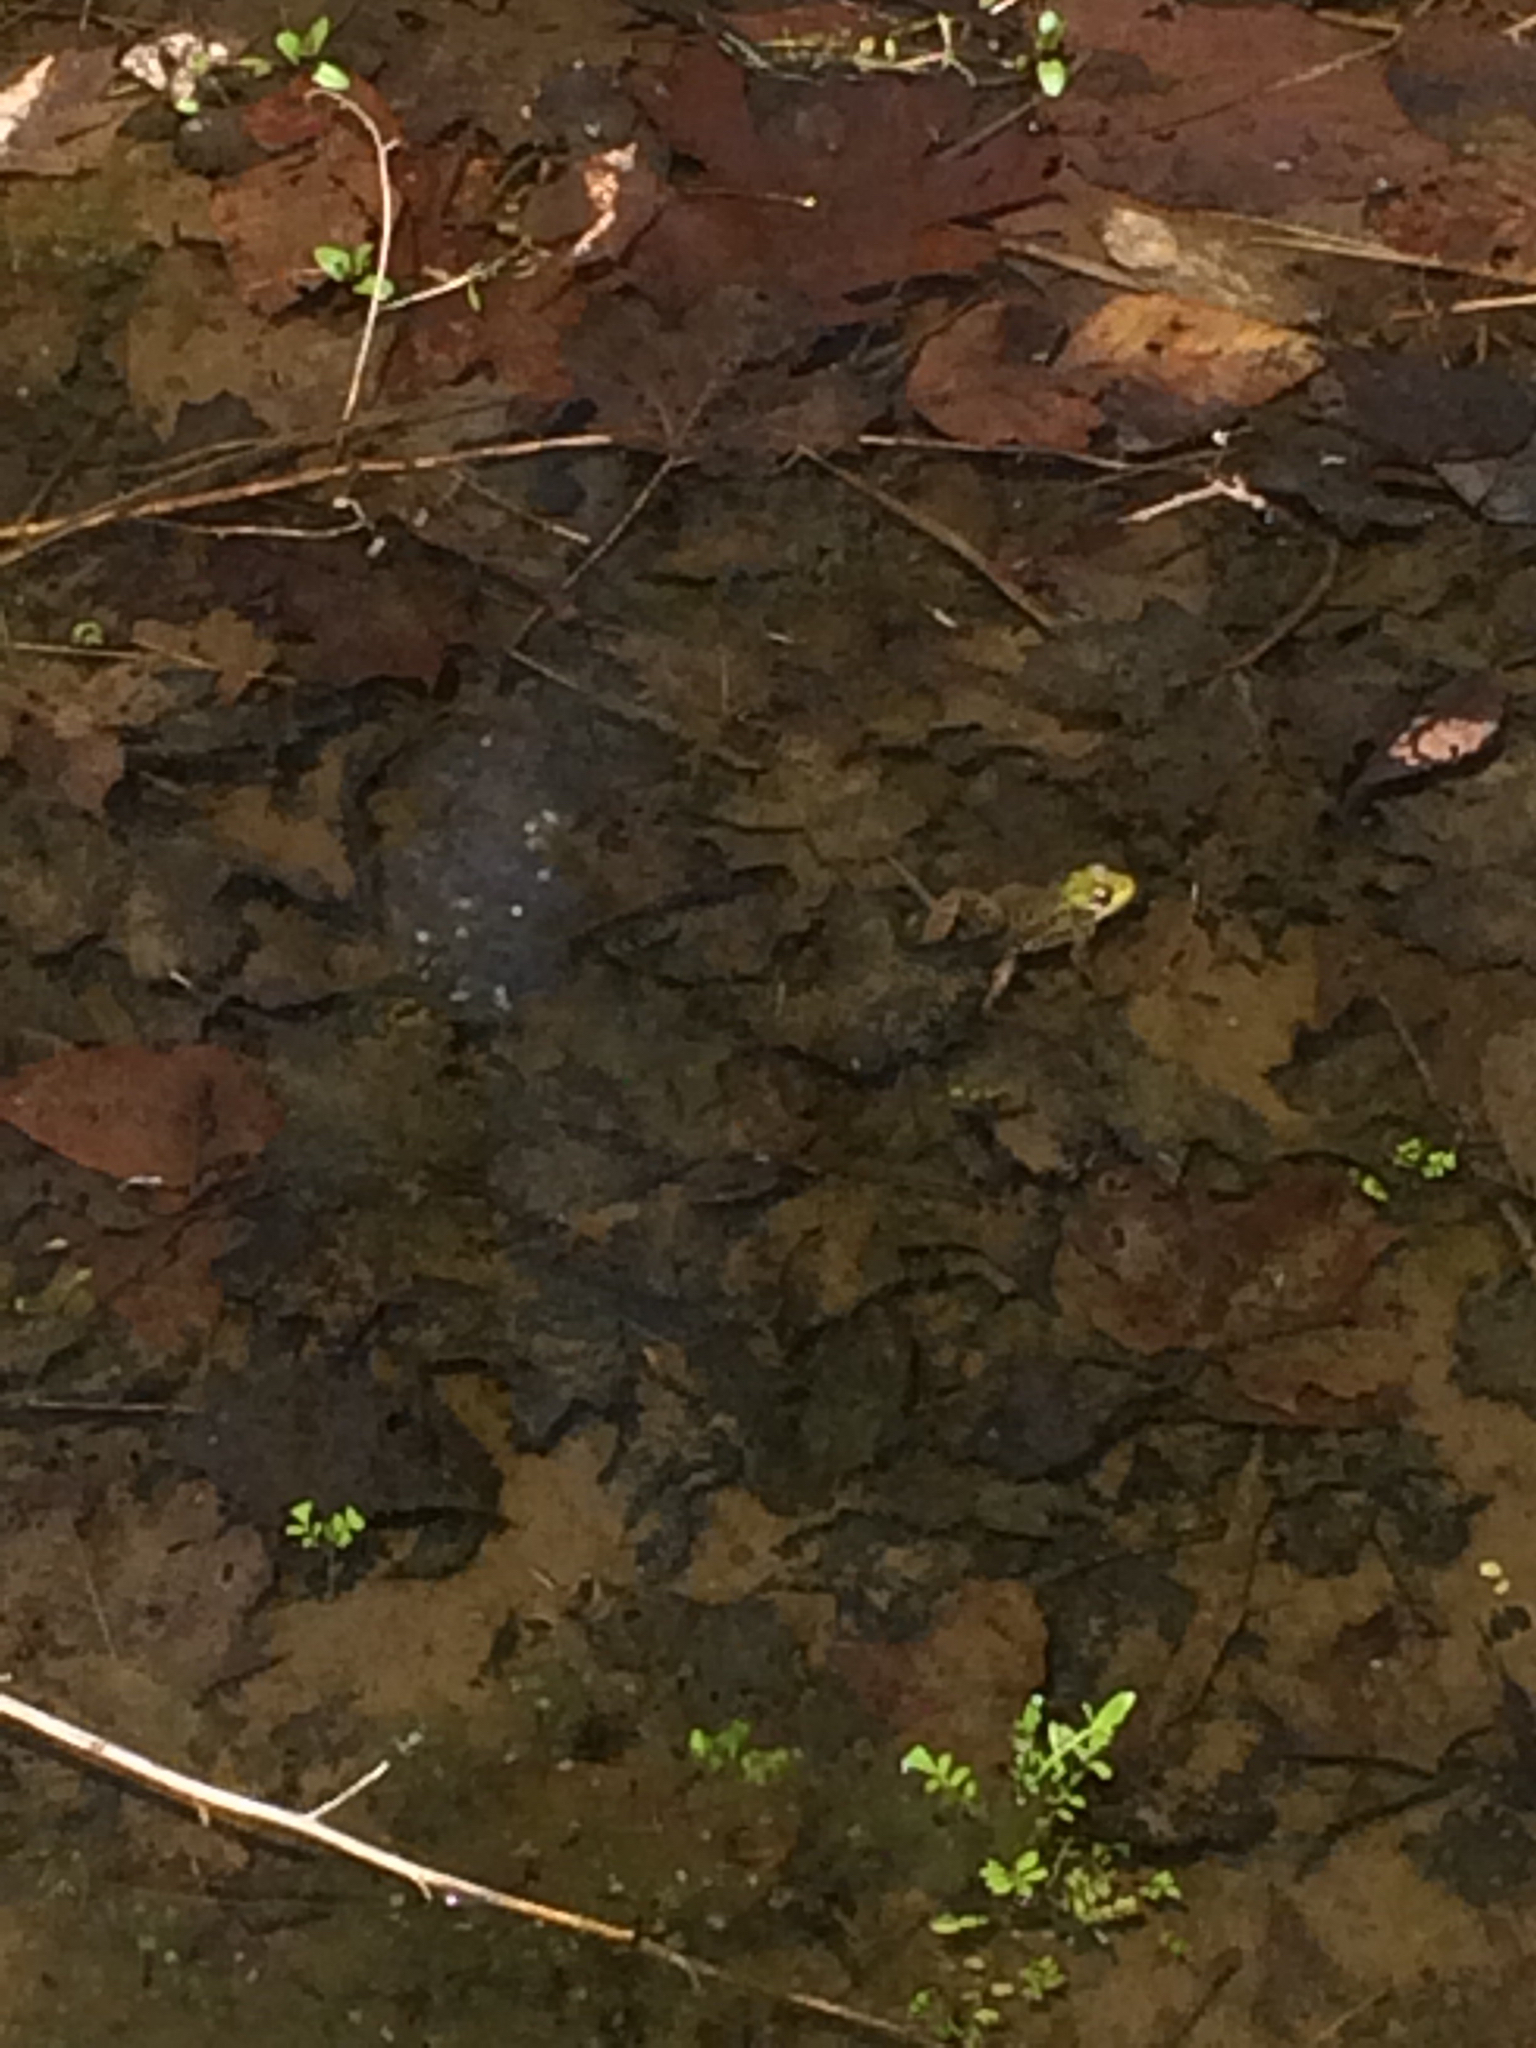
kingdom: Animalia
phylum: Chordata
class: Amphibia
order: Anura
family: Ranidae
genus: Lithobates
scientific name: Lithobates clamitans
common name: Green frog
